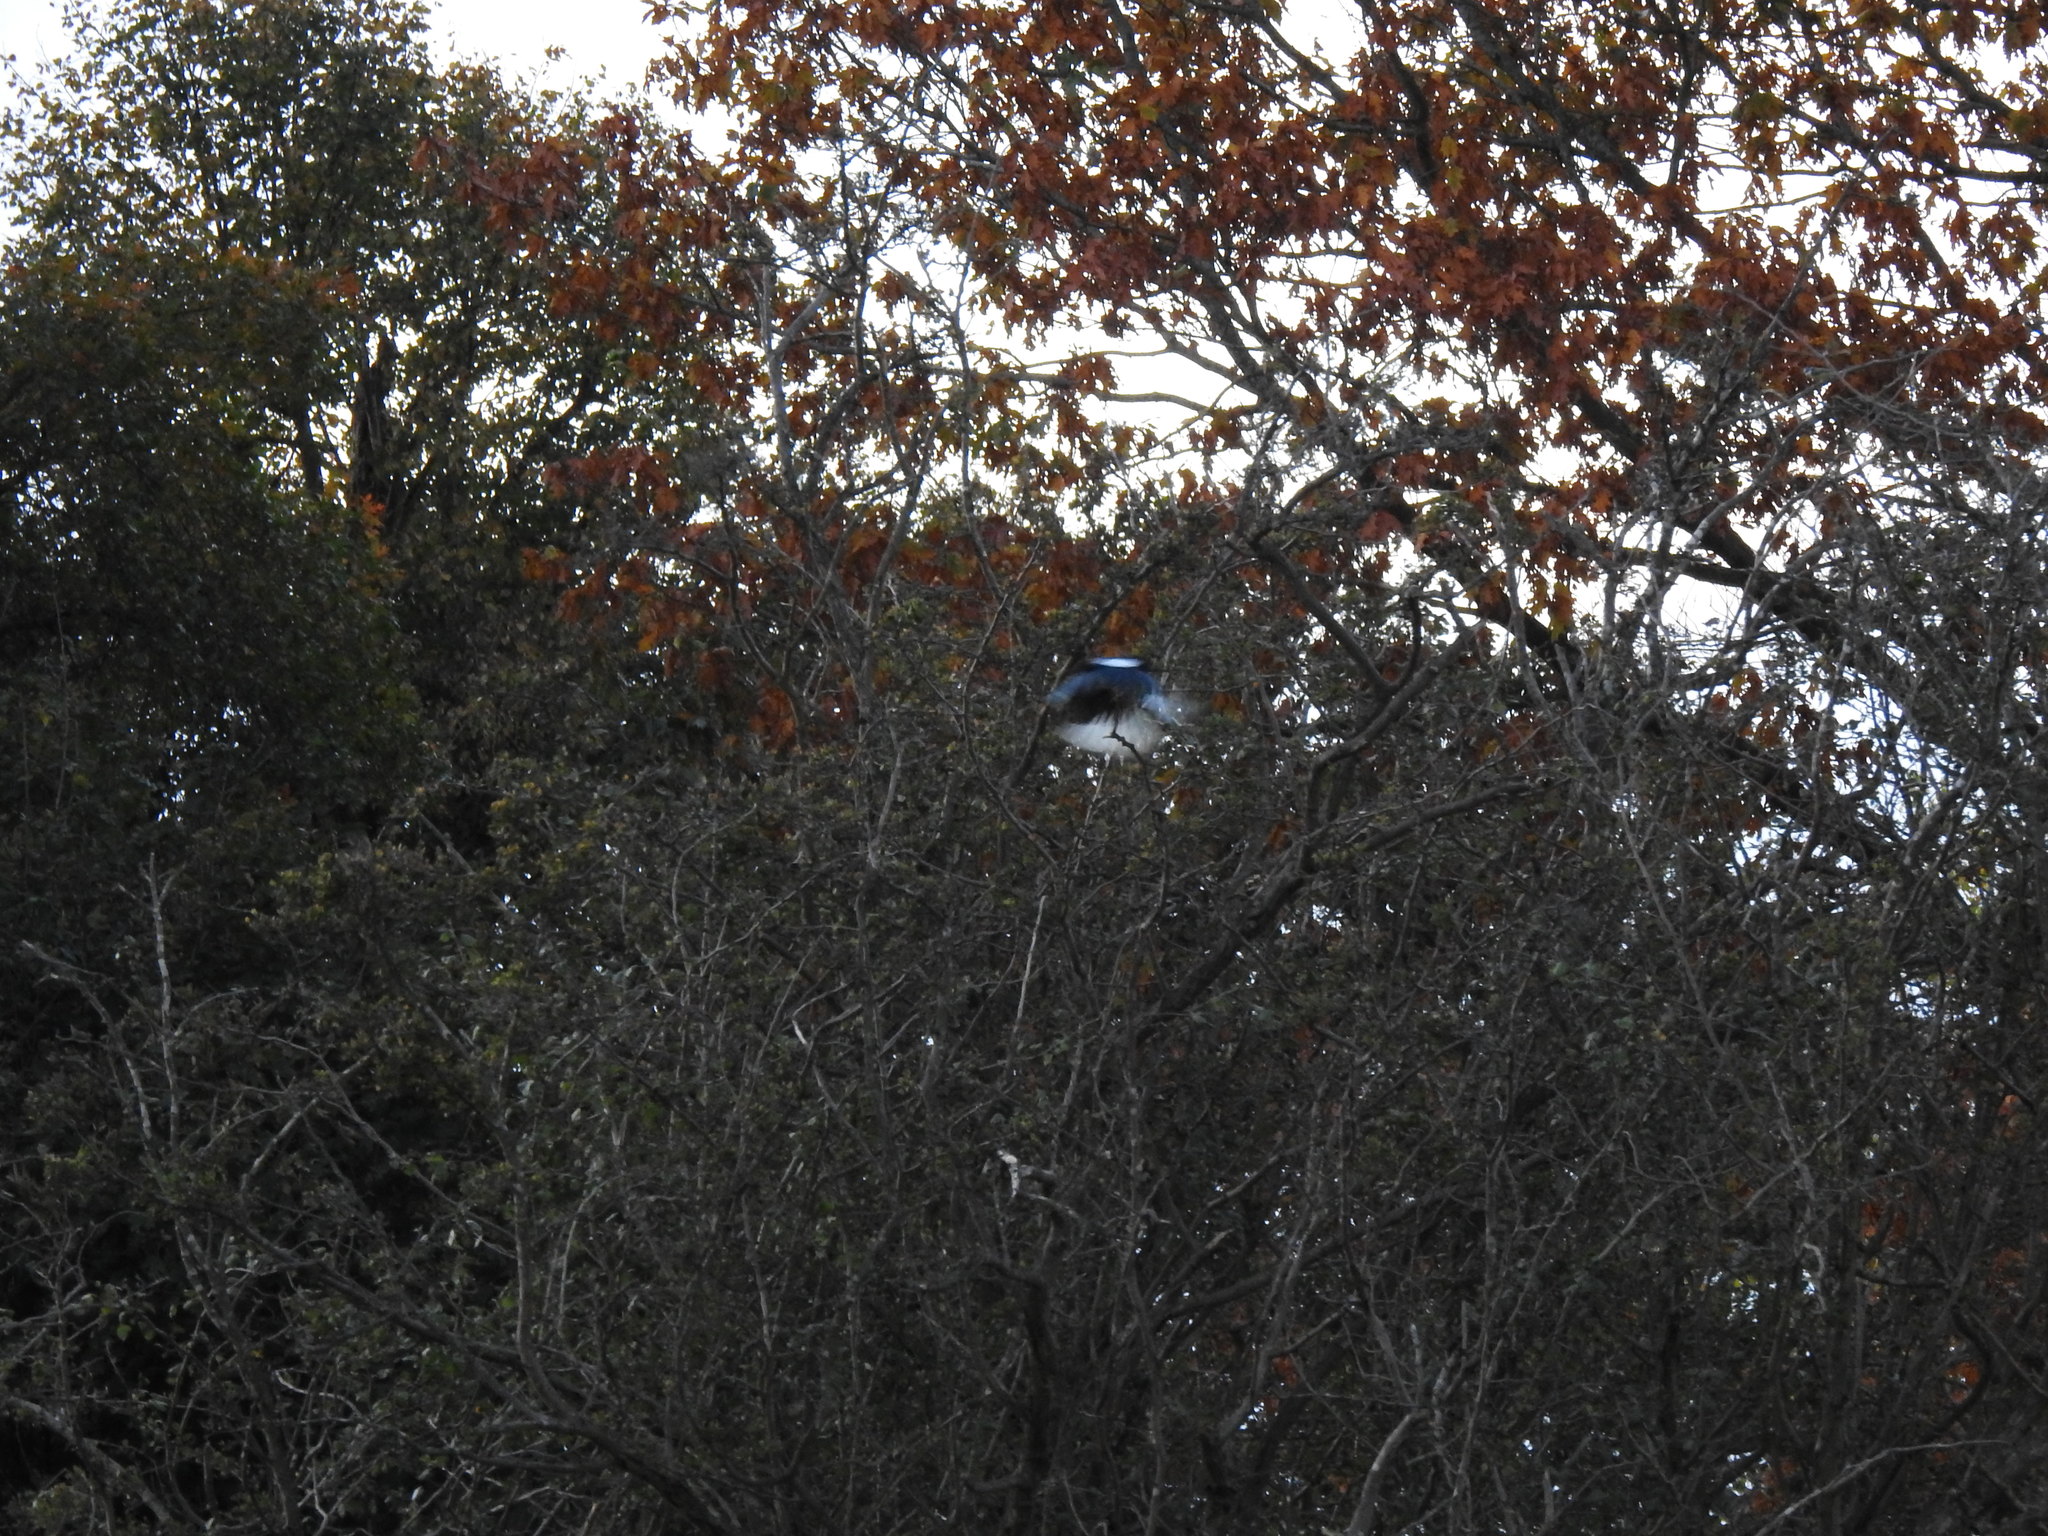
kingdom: Animalia
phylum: Chordata
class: Aves
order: Passeriformes
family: Corvidae
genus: Pica
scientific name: Pica pica
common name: Eurasian magpie
